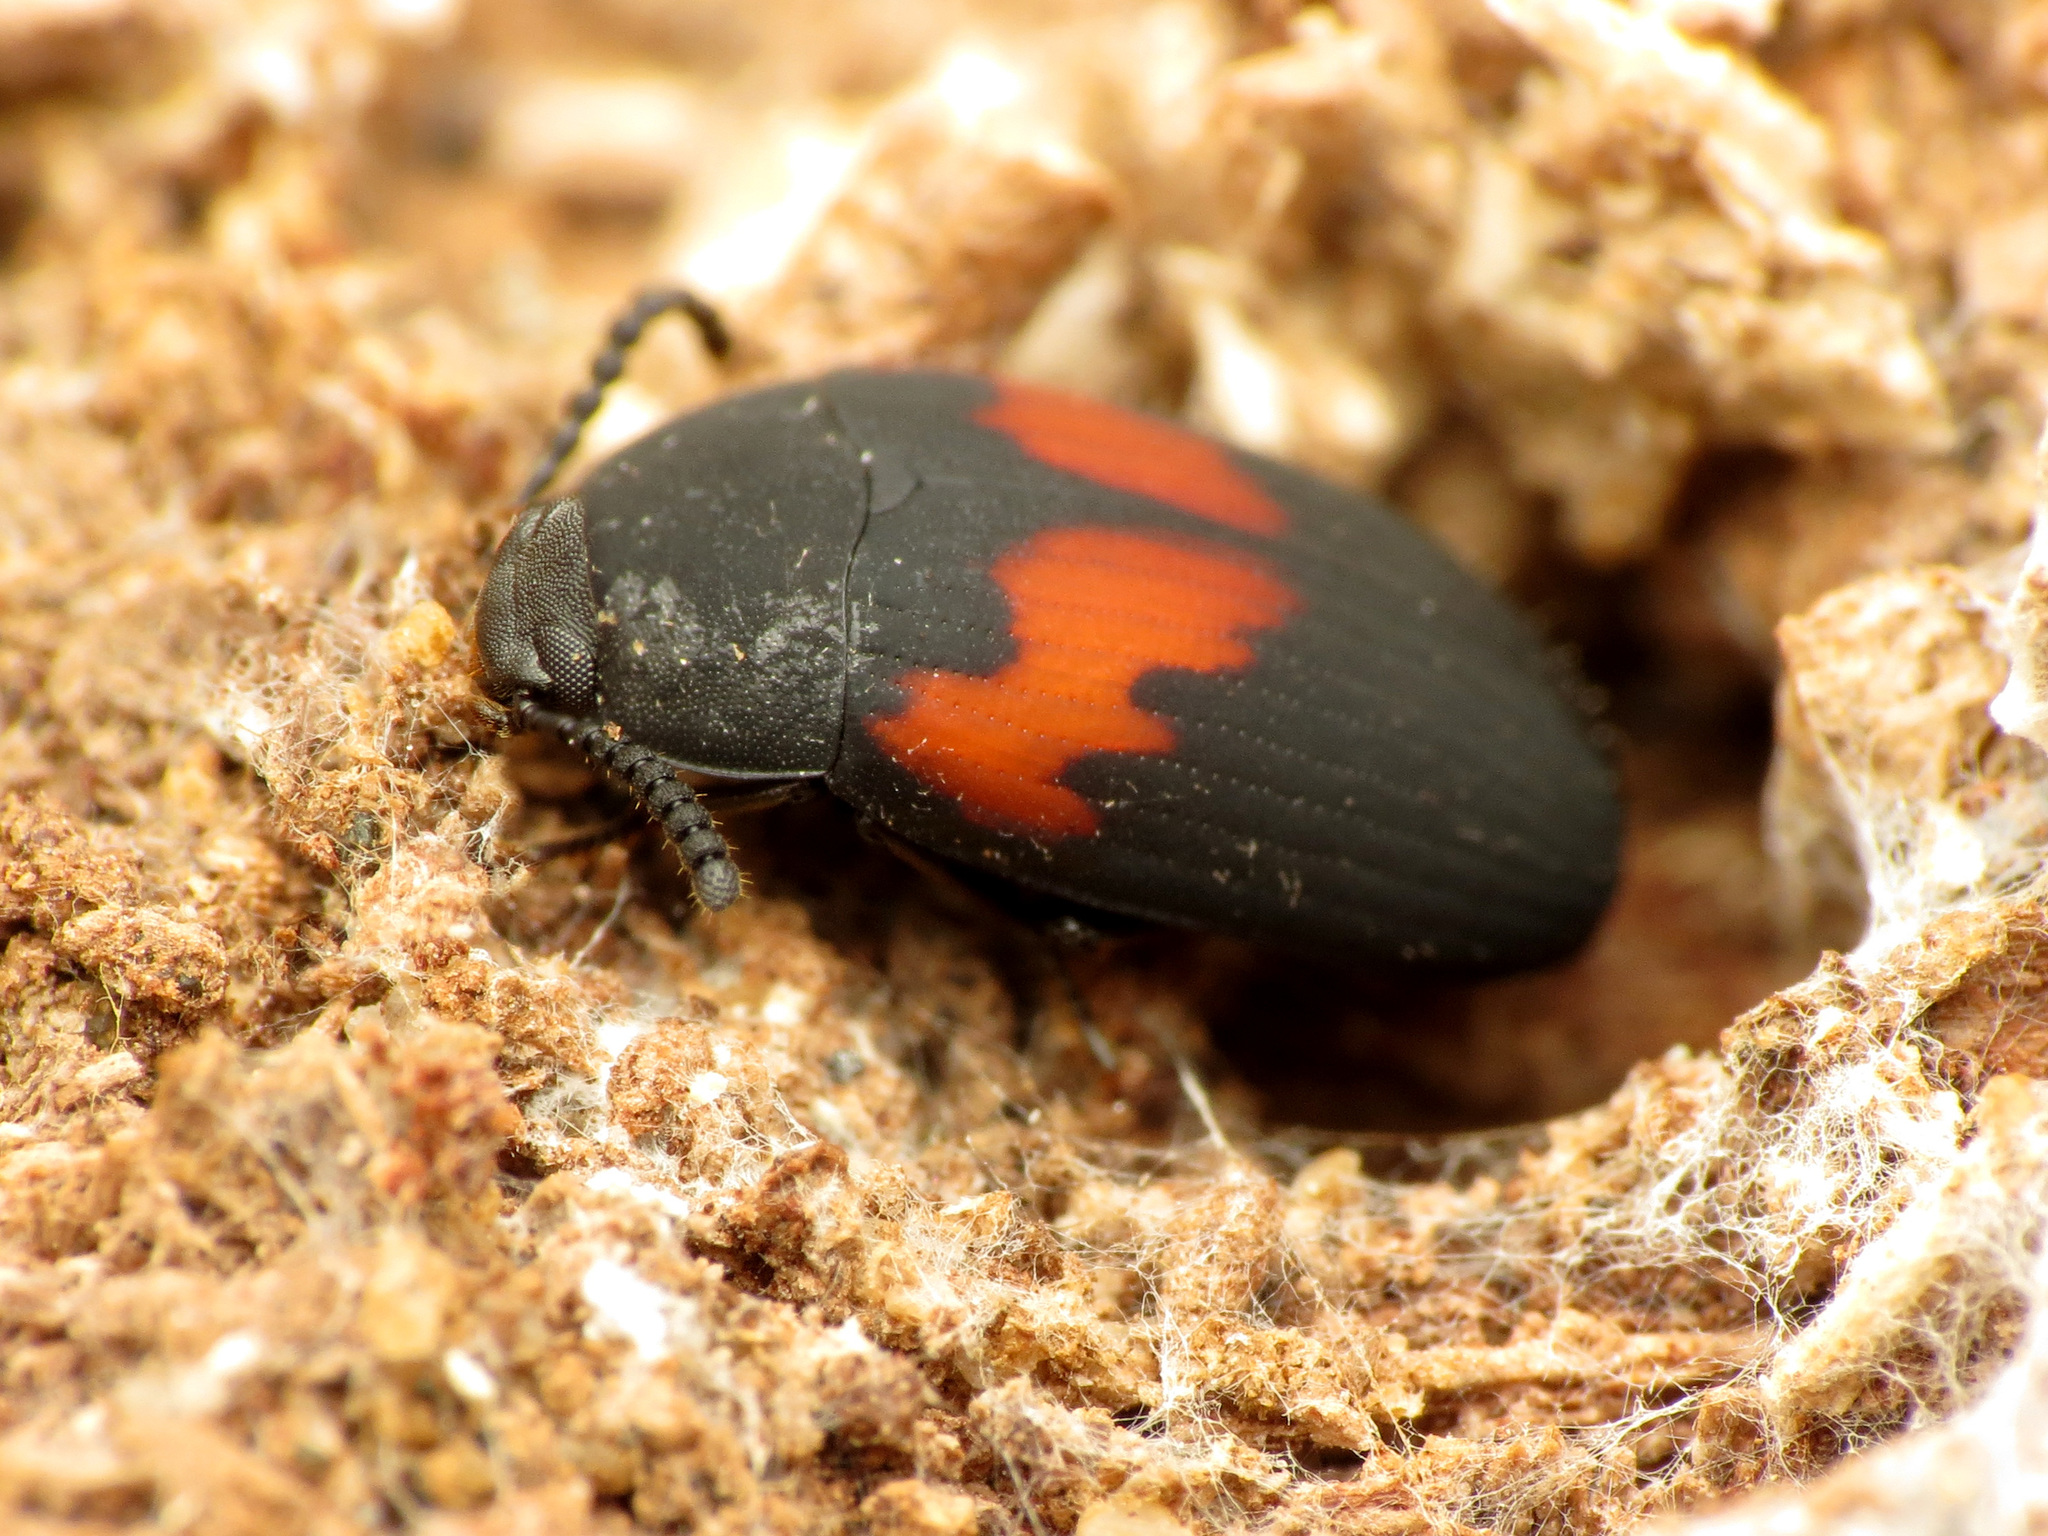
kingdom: Animalia
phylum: Arthropoda
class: Insecta
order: Coleoptera
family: Tenebrionidae
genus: Platydema
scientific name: Platydema elliptica
